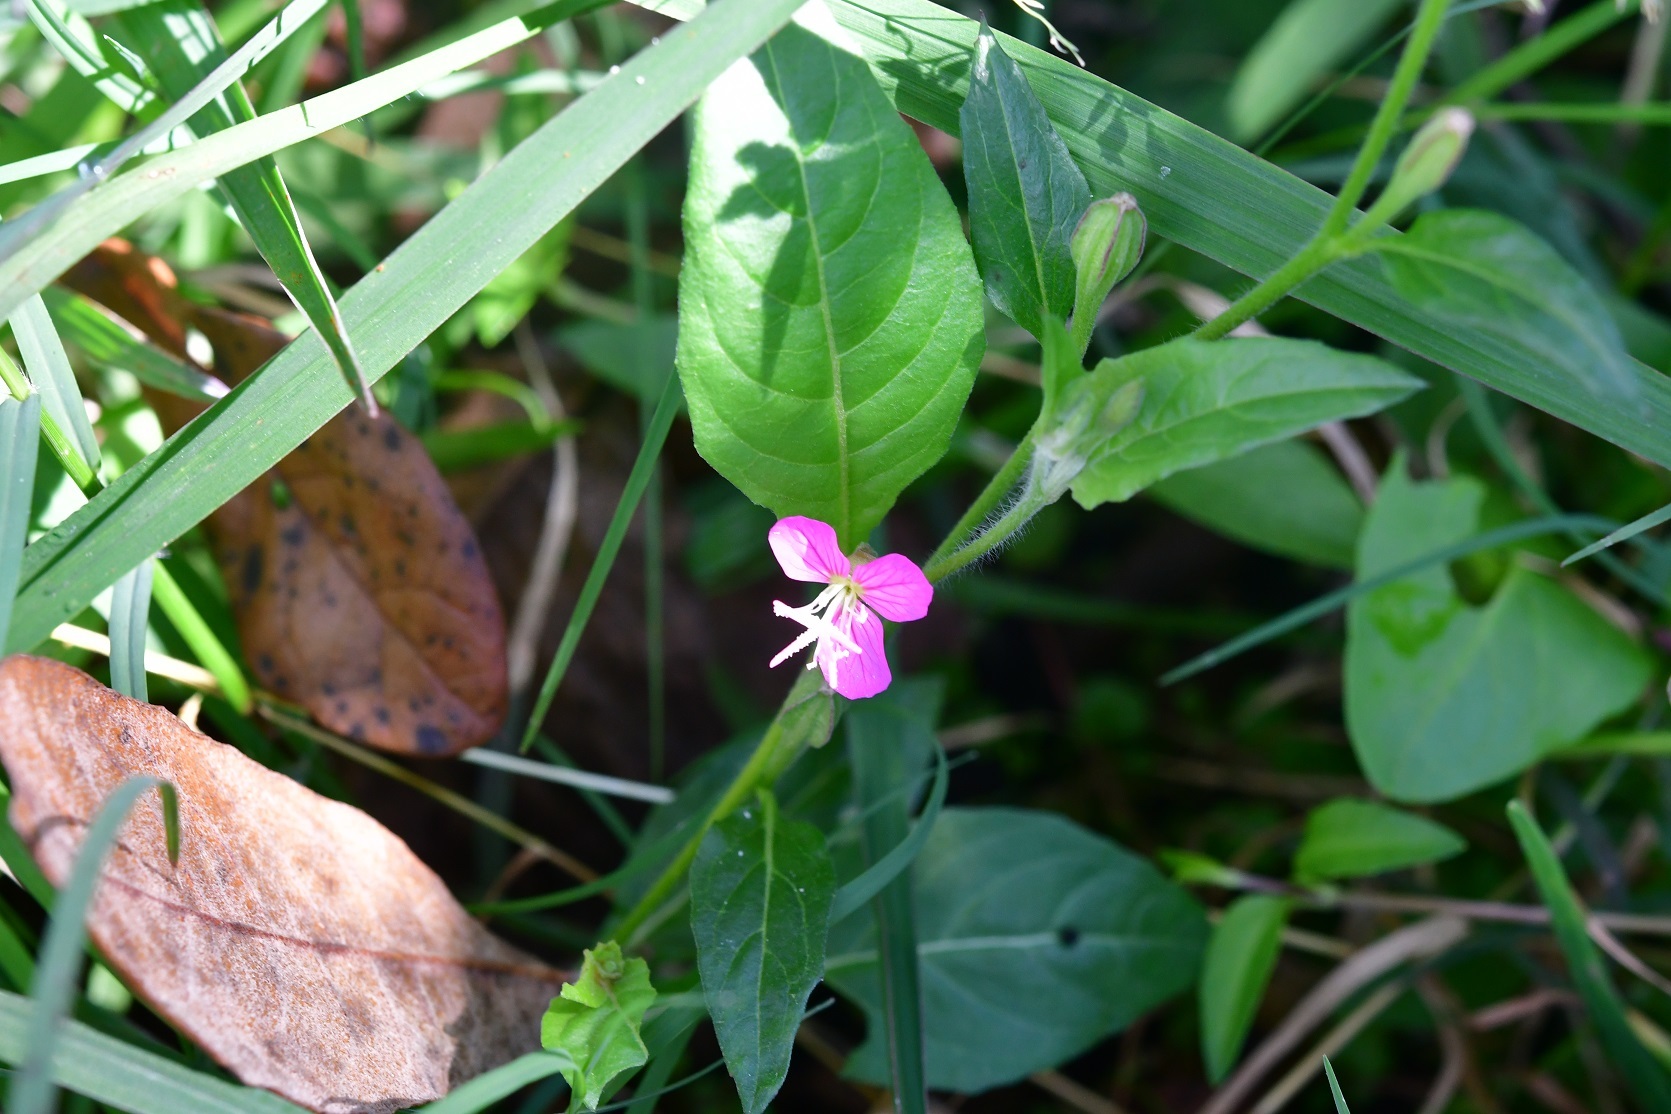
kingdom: Plantae
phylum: Tracheophyta
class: Magnoliopsida
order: Myrtales
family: Onagraceae
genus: Oenothera
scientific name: Oenothera rosea
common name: Rosy evening-primrose
